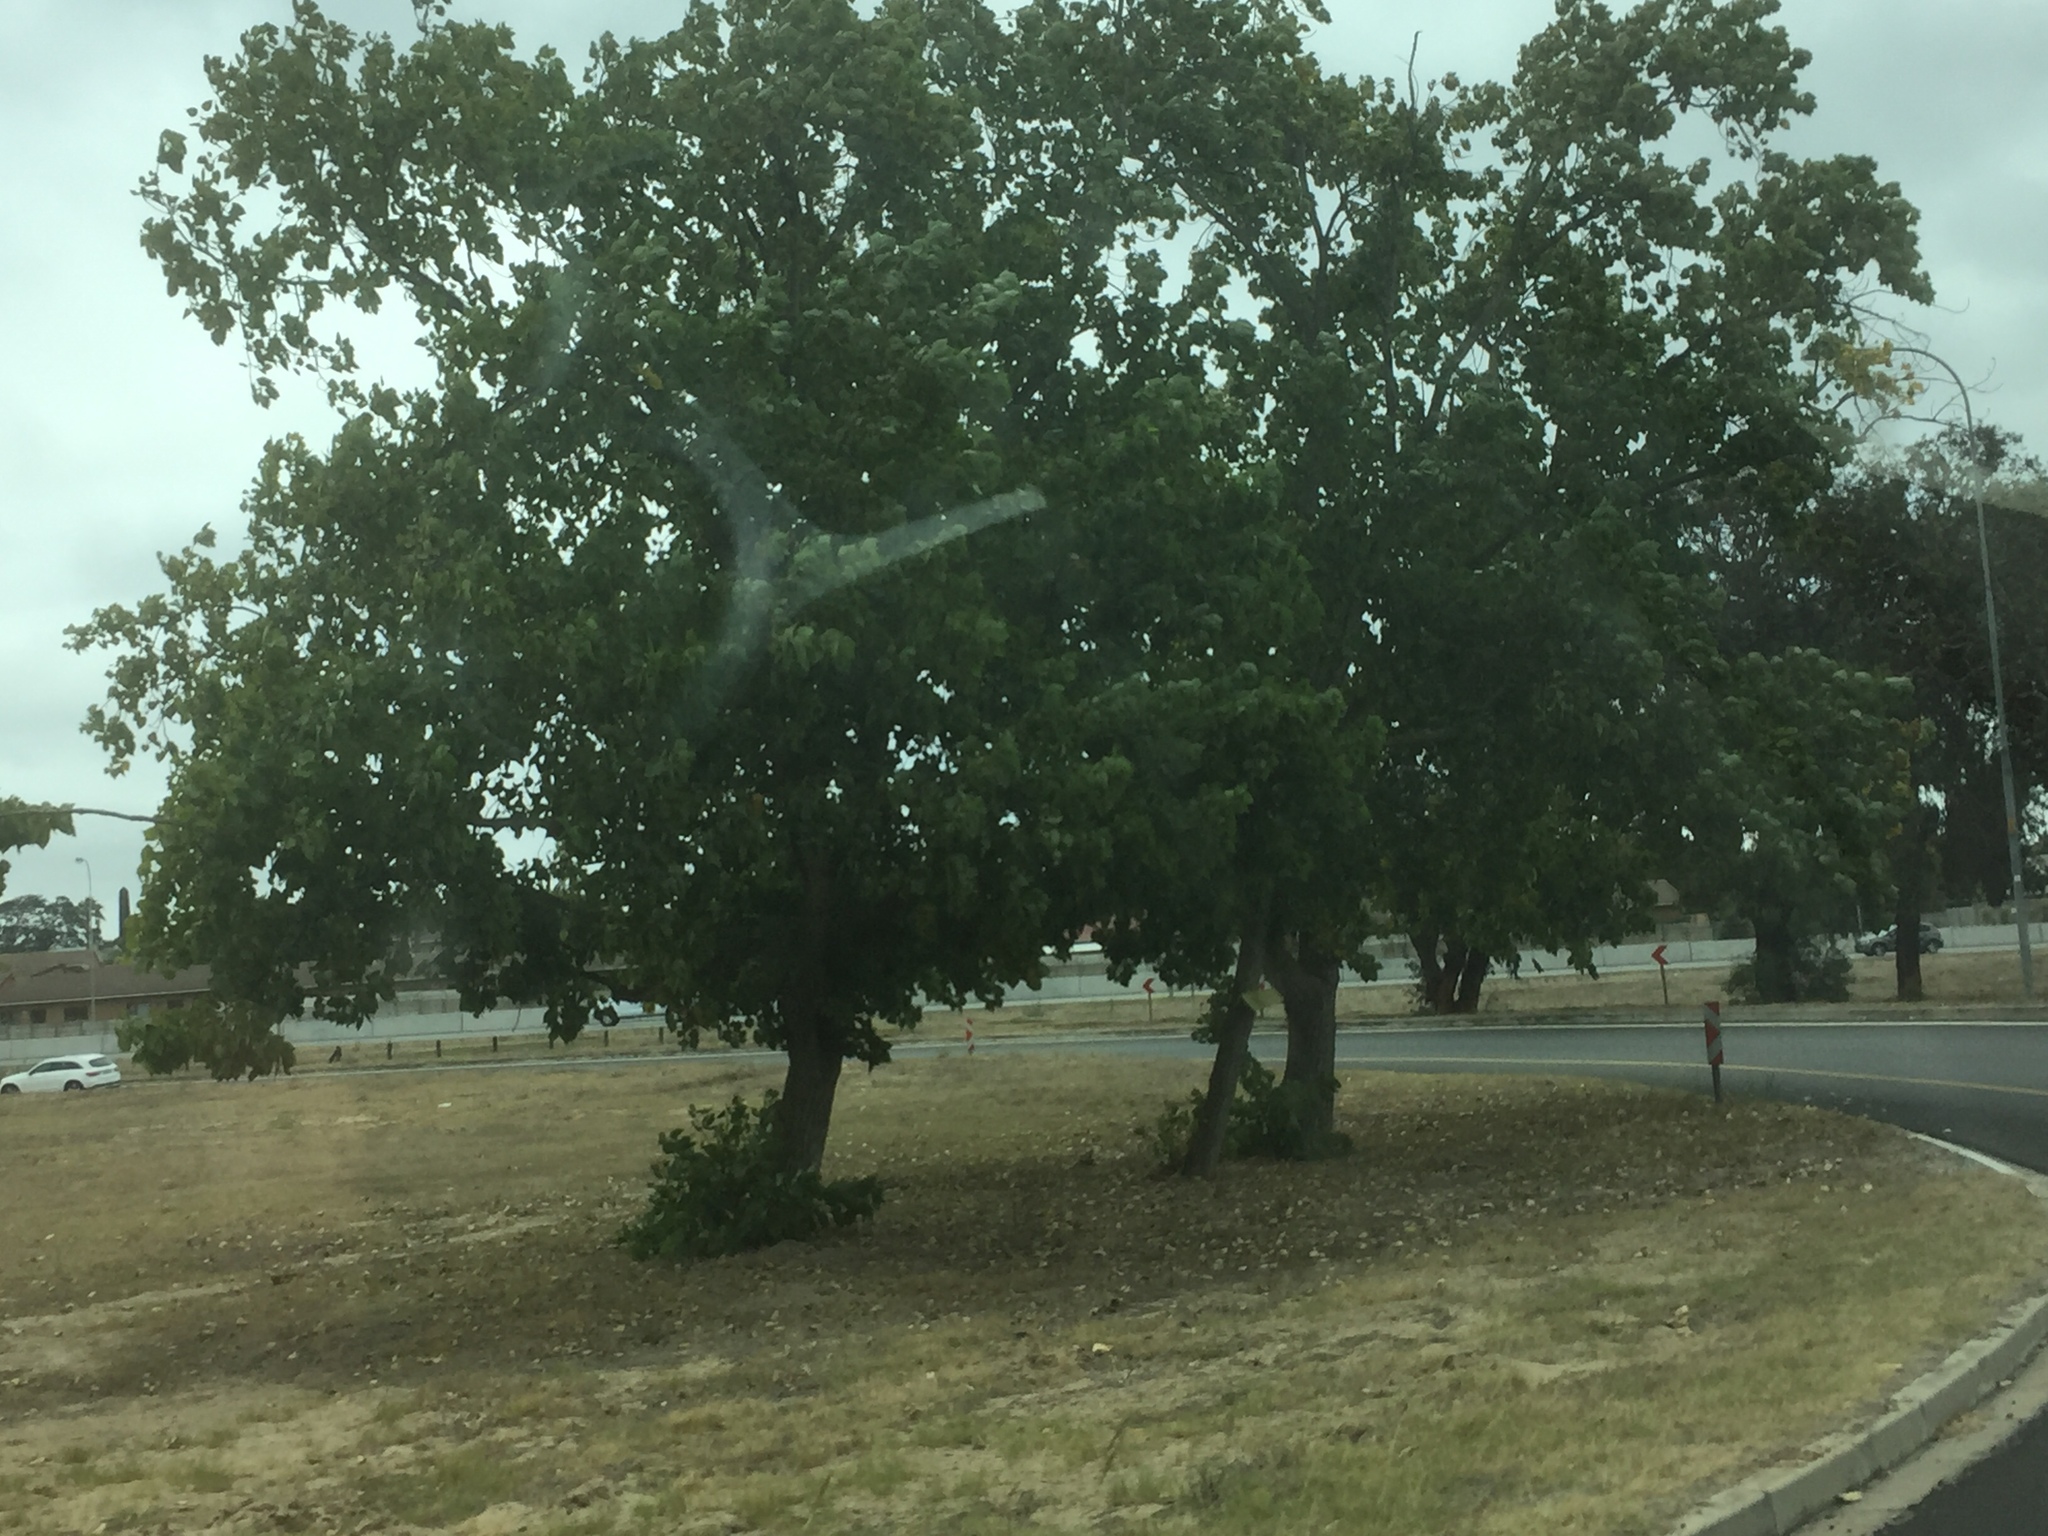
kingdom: Plantae
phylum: Tracheophyta
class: Magnoliopsida
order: Malpighiales
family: Salicaceae
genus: Populus
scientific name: Populus deltoides
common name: Eastern cottonwood
